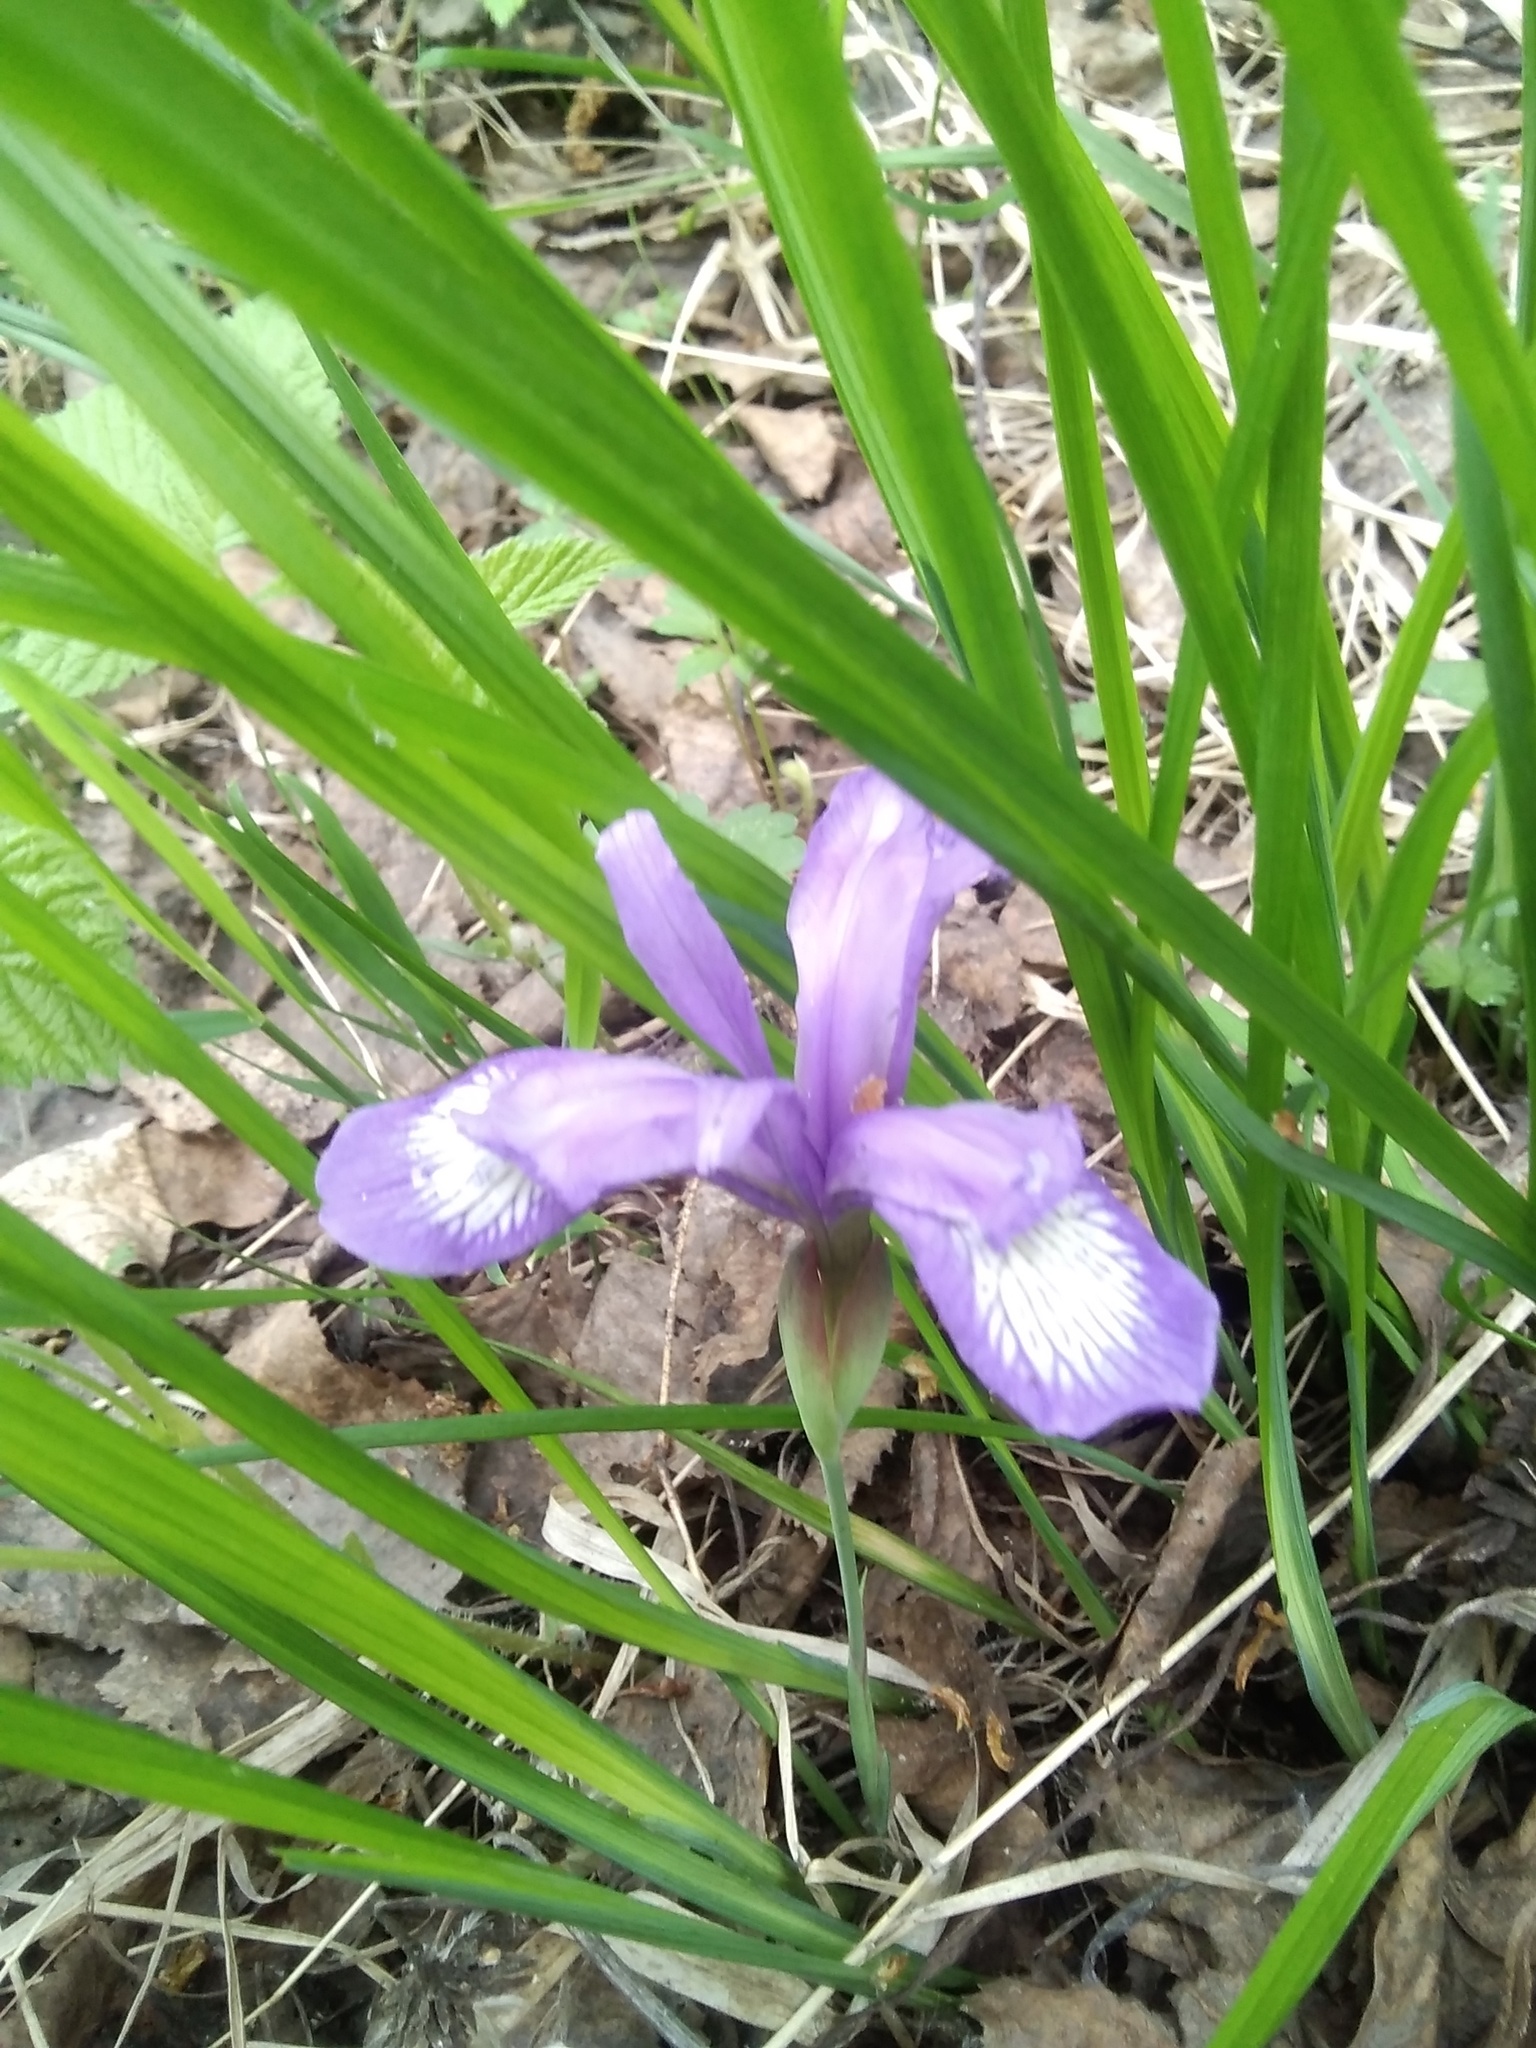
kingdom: Plantae
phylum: Tracheophyta
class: Liliopsida
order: Asparagales
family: Iridaceae
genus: Iris
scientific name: Iris ruthenica
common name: Purple-bract iris
